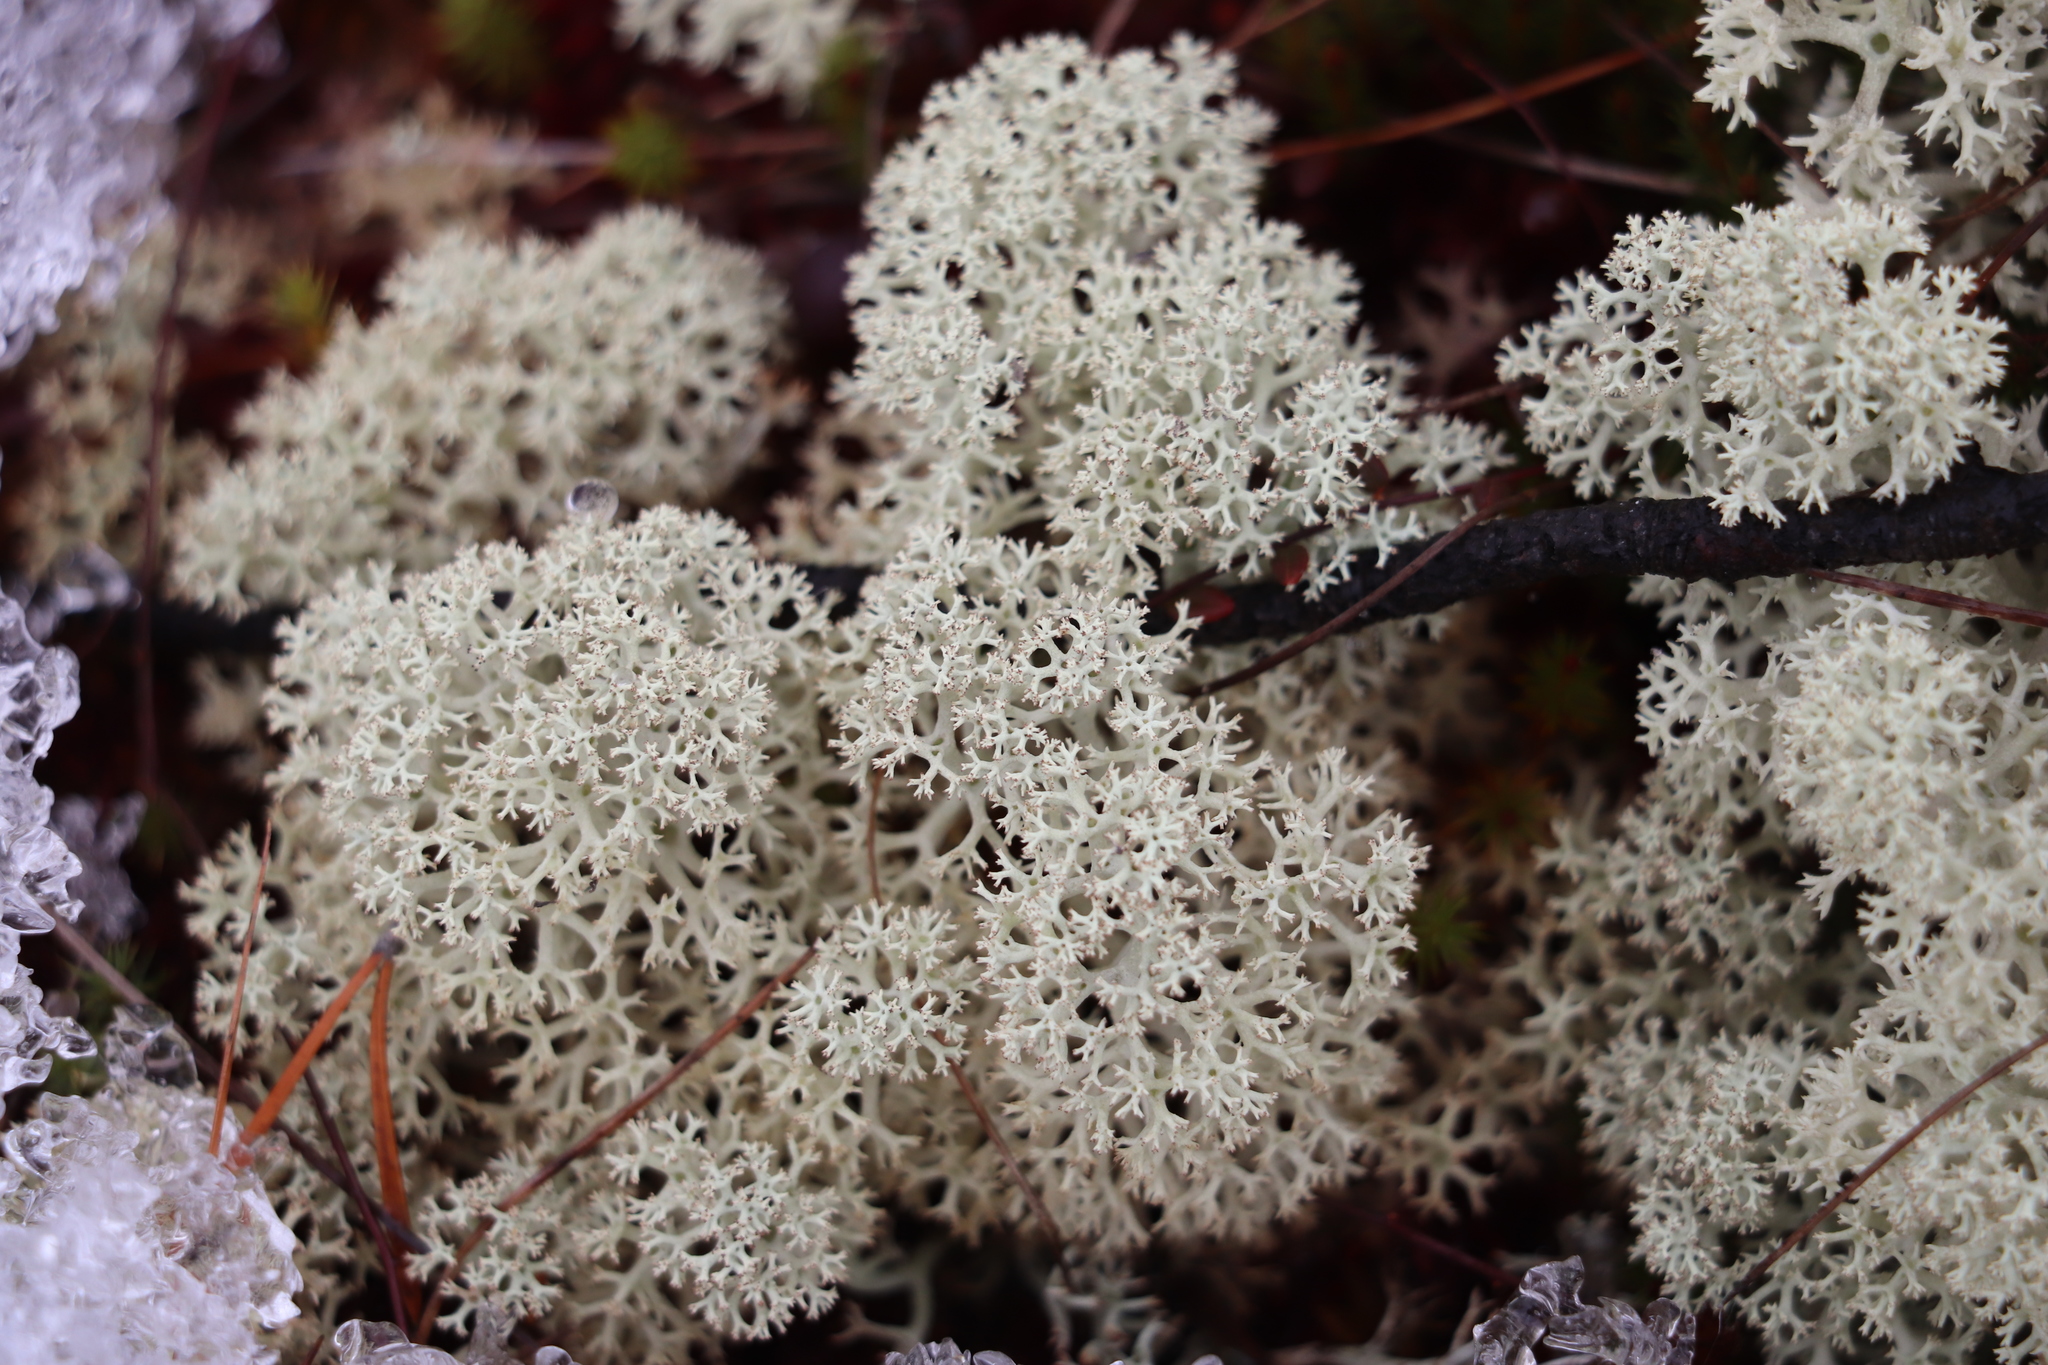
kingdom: Fungi
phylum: Ascomycota
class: Lecanoromycetes
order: Lecanorales
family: Cladoniaceae
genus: Cladonia
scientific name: Cladonia stellaris
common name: Star-tipped reindeer lichen
